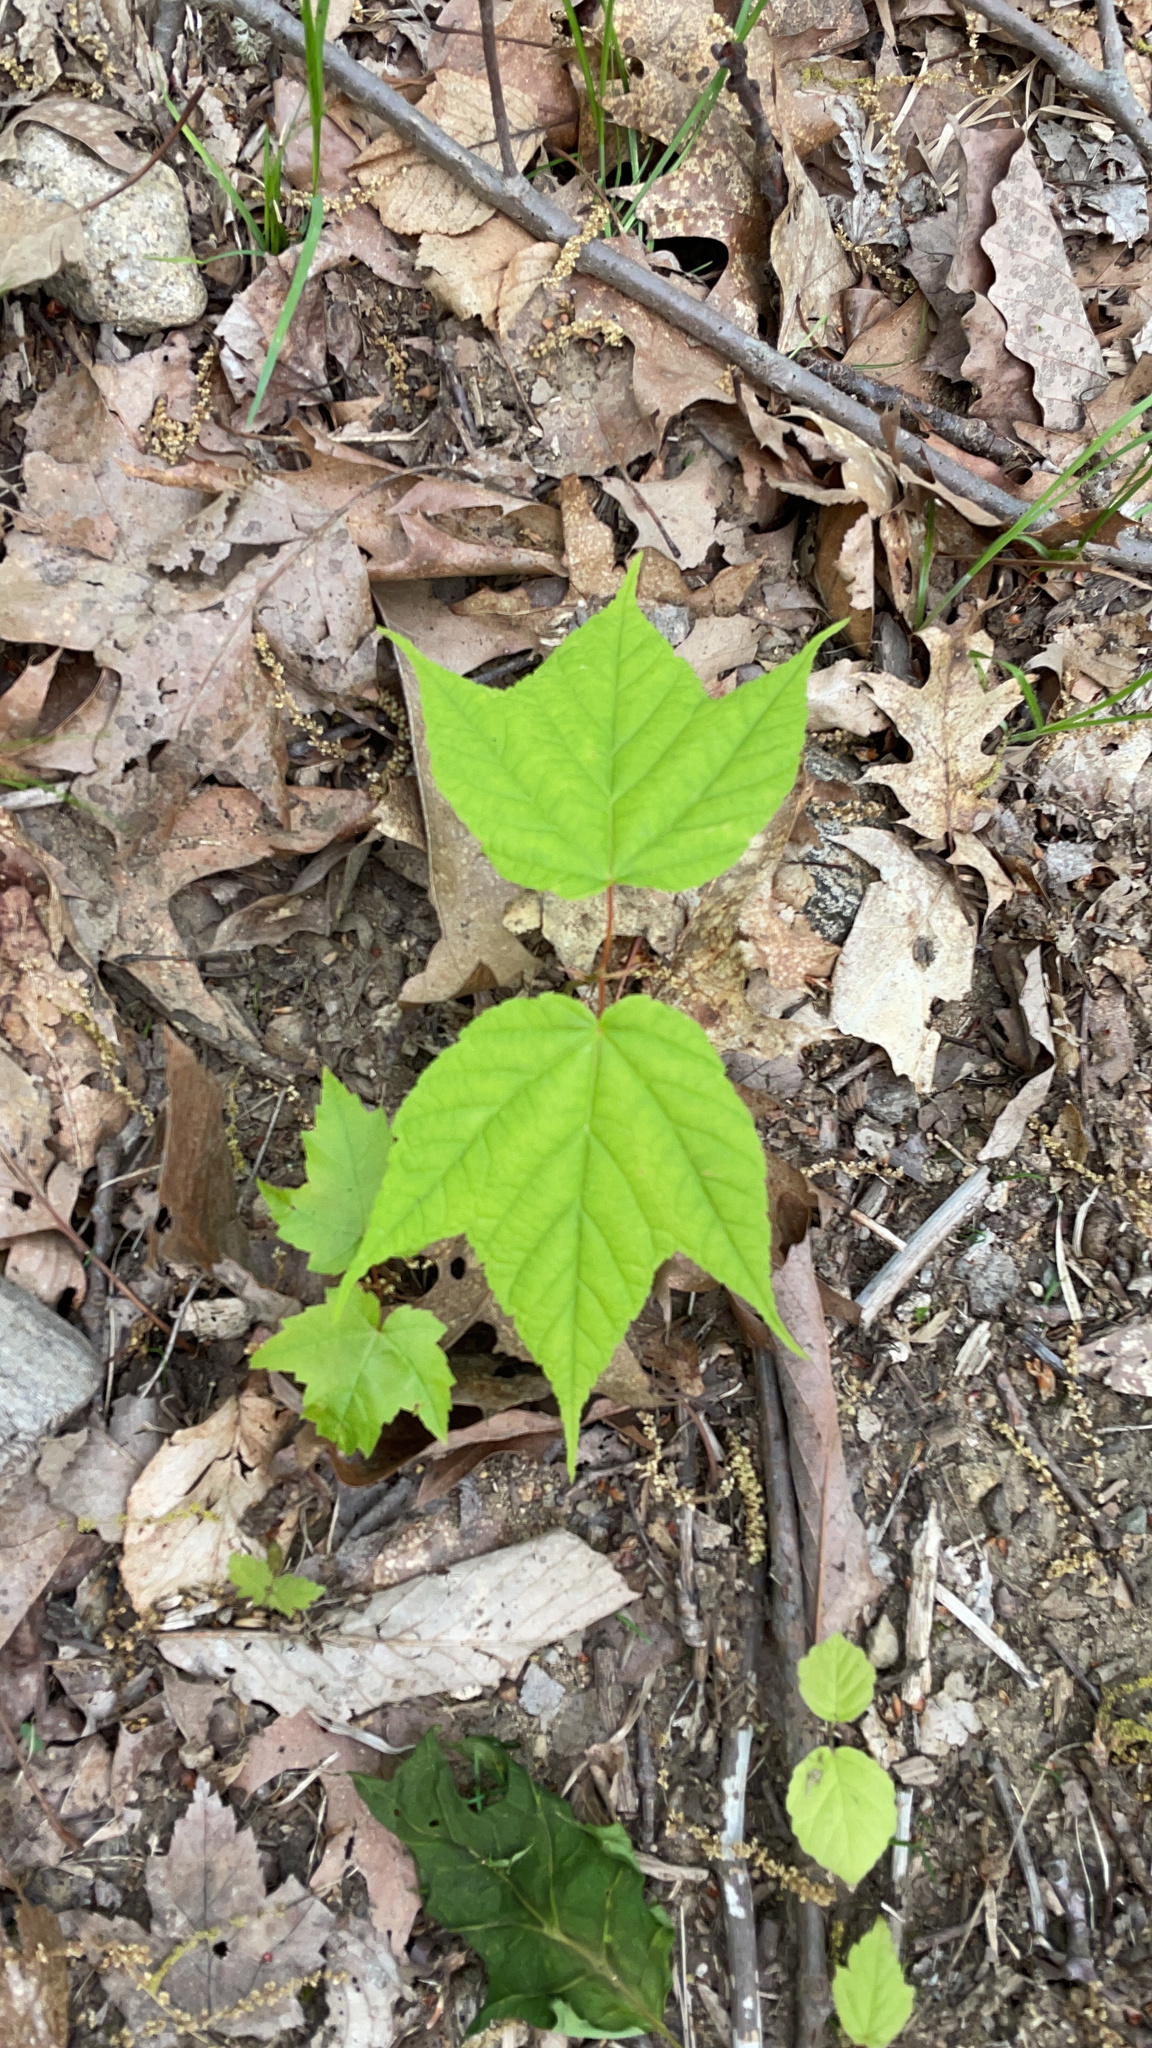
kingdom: Plantae
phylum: Tracheophyta
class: Magnoliopsida
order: Sapindales
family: Sapindaceae
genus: Acer
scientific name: Acer pensylvanicum
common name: Moosewood
